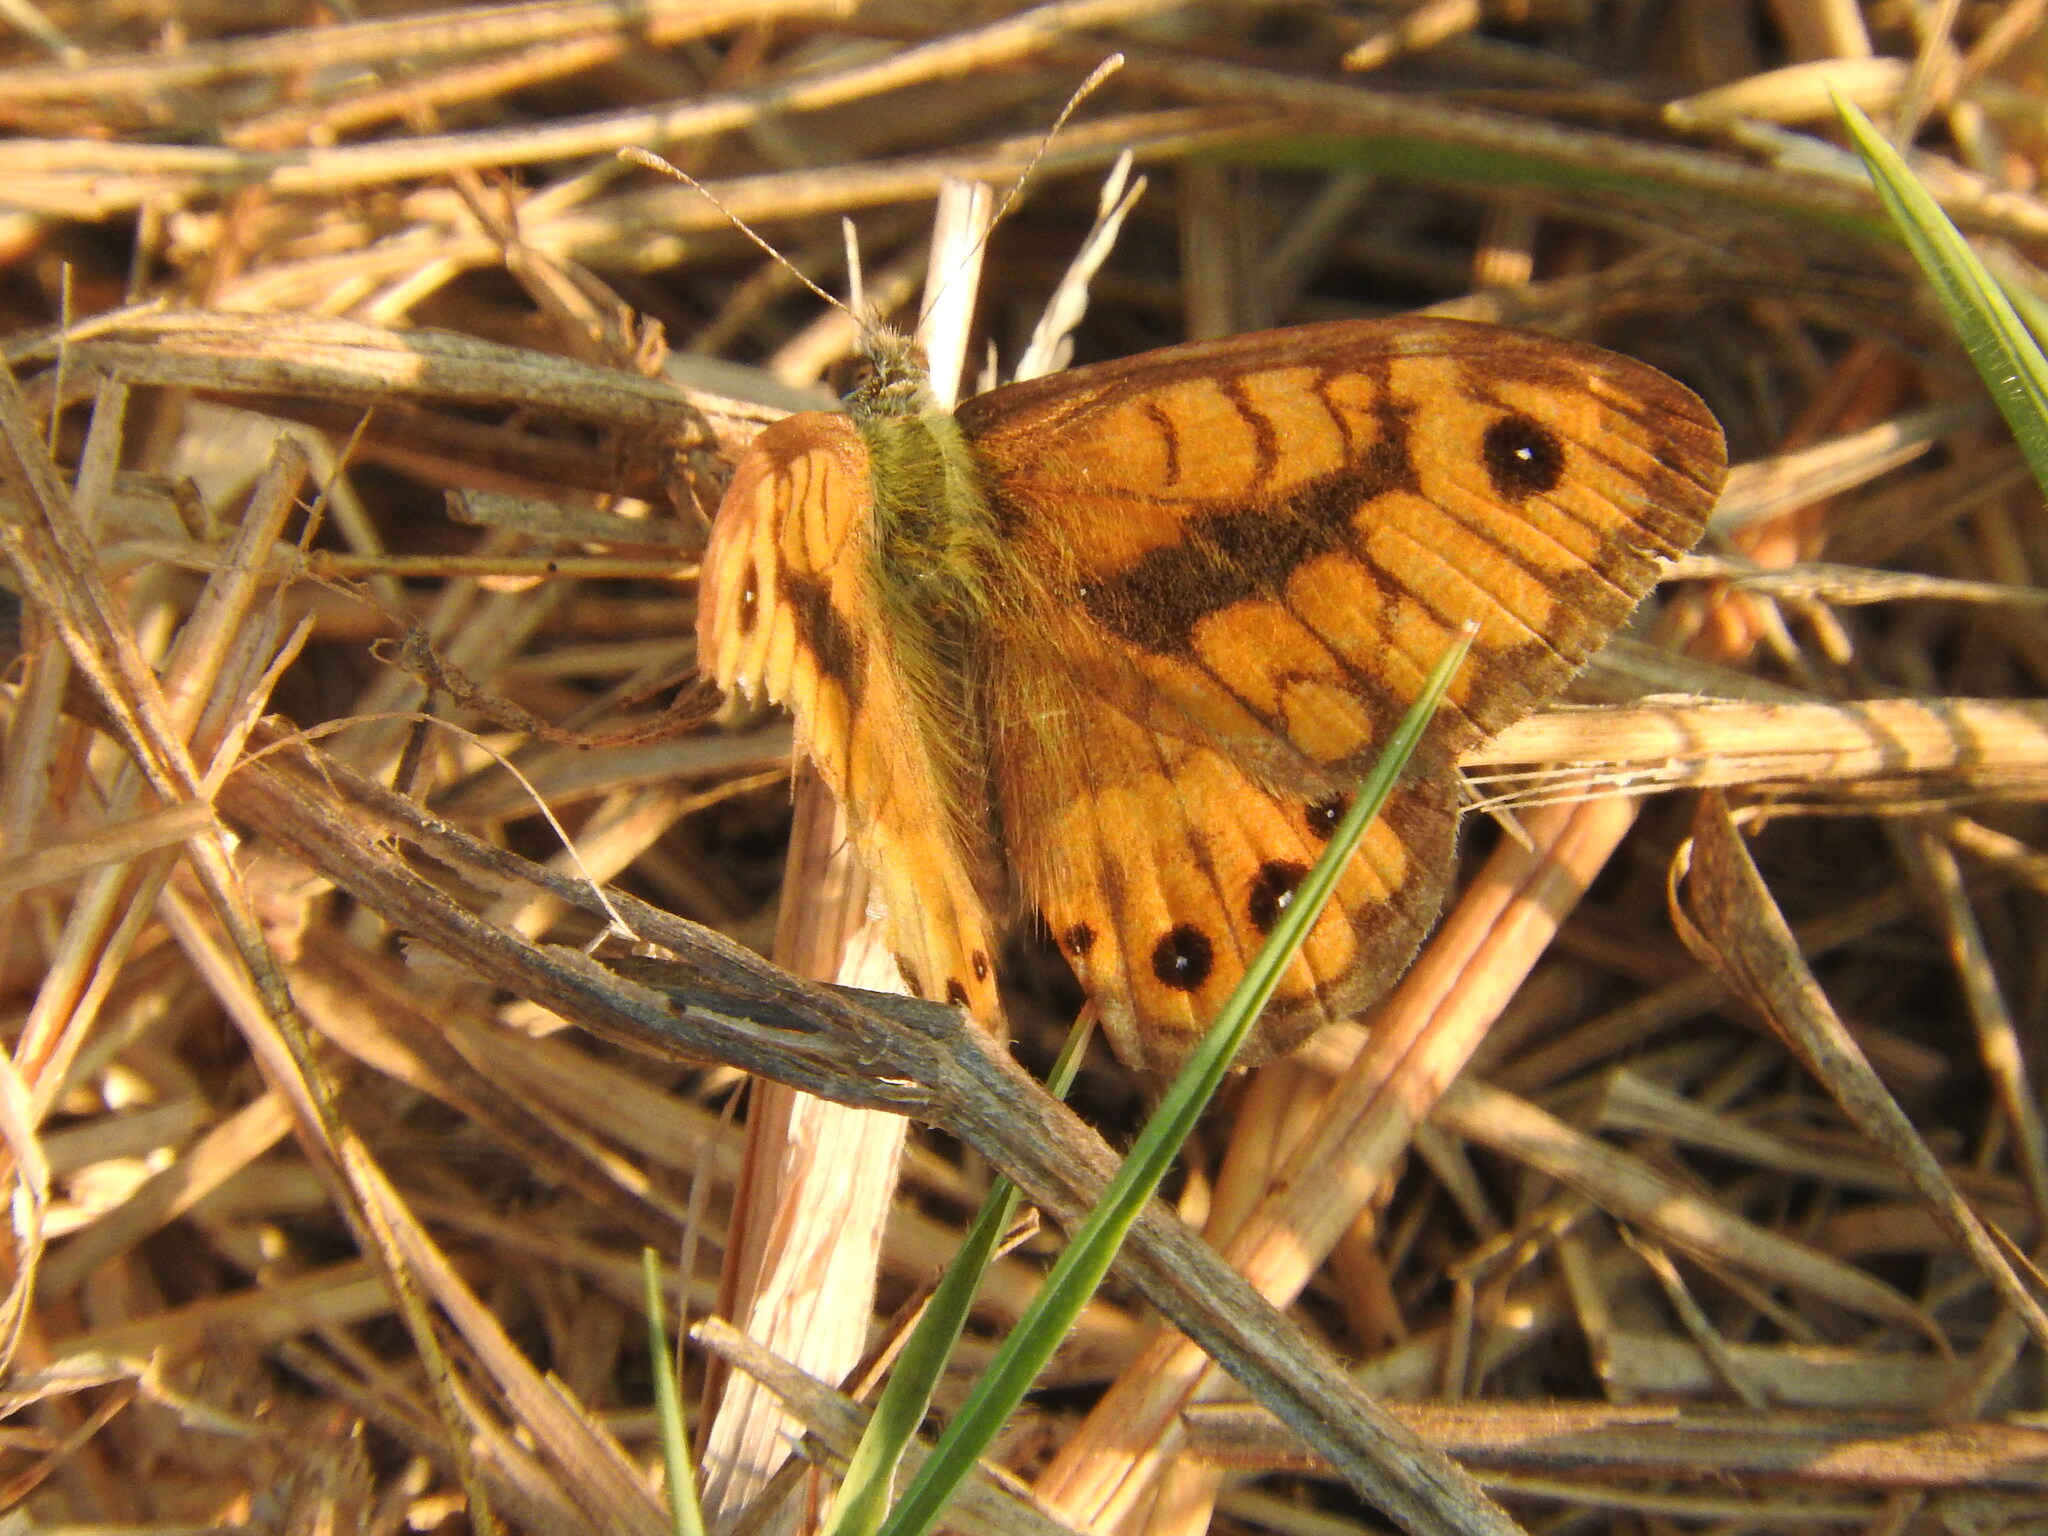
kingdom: Animalia
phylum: Arthropoda
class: Insecta
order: Lepidoptera
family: Nymphalidae
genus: Pararge
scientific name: Pararge Lasiommata megera
